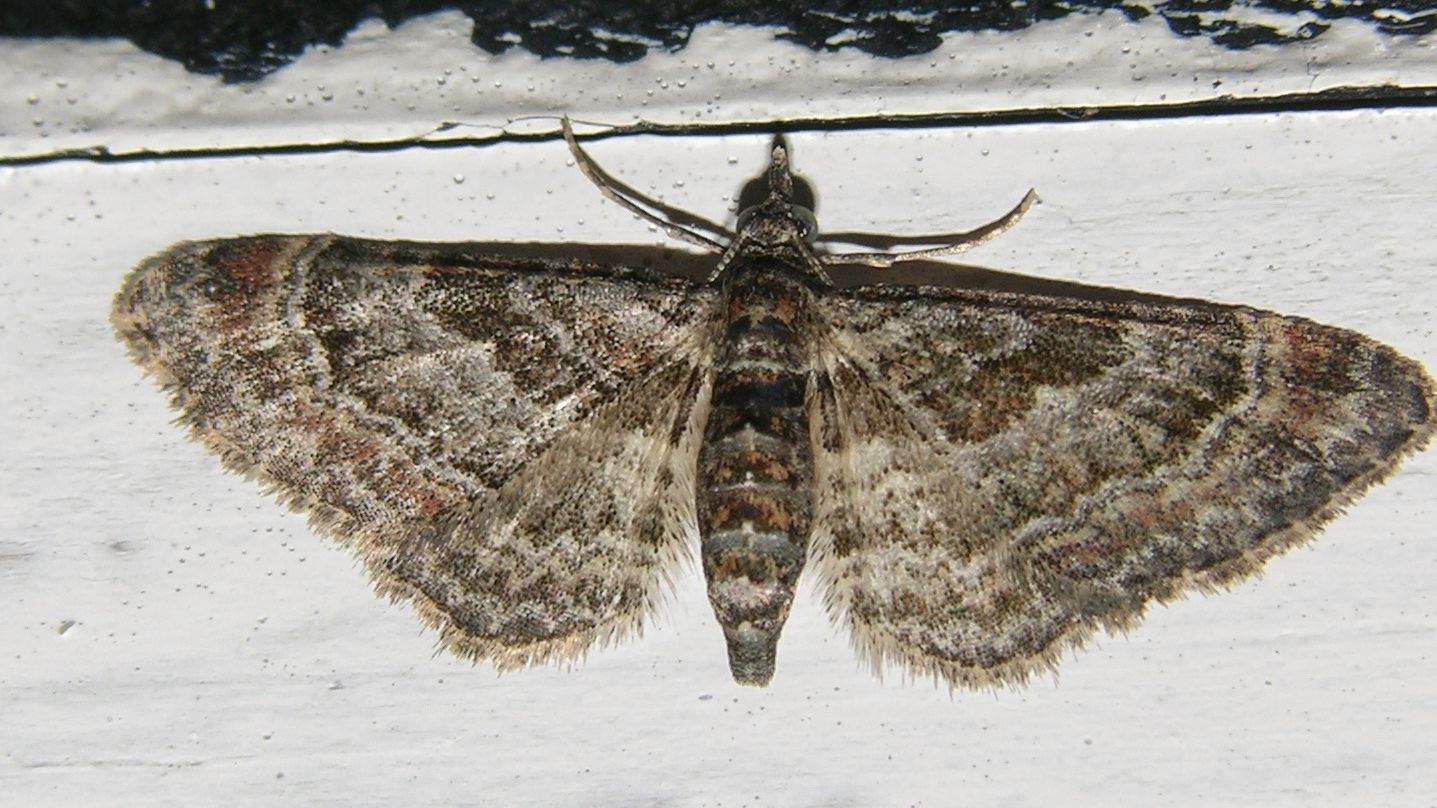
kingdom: Animalia
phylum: Arthropoda
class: Insecta
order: Lepidoptera
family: Geometridae
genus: Gymnoscelis
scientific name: Gymnoscelis rufifasciata
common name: Double-striped pug
